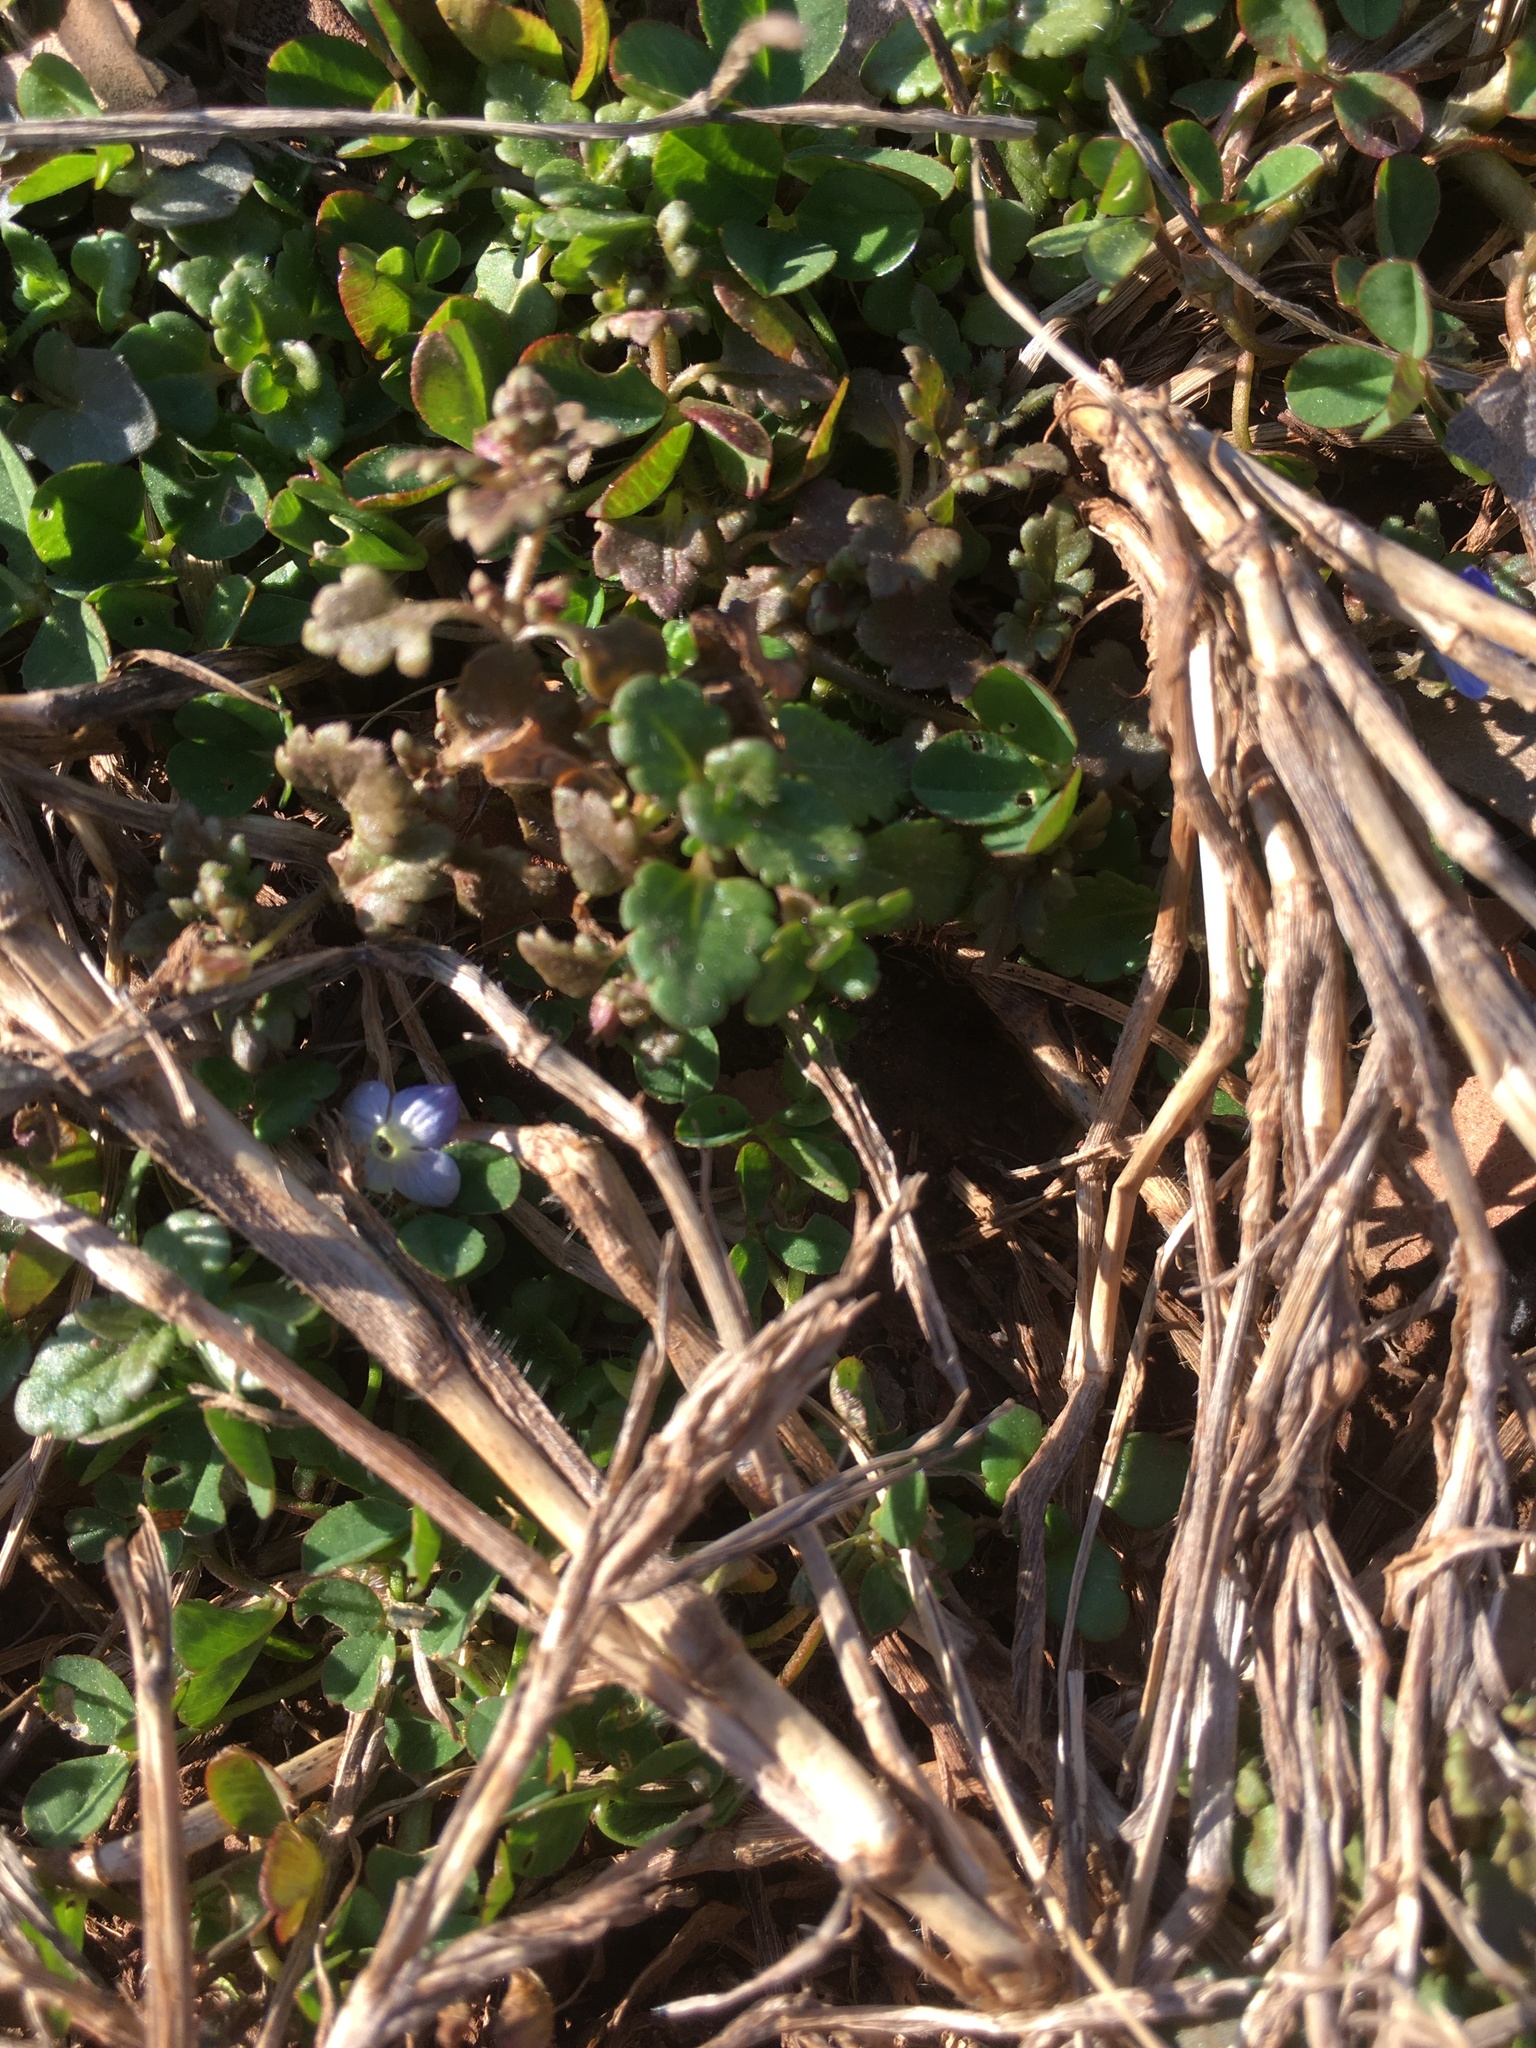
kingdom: Plantae
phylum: Tracheophyta
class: Magnoliopsida
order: Lamiales
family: Plantaginaceae
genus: Veronica
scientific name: Veronica polita
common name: Grey field-speedwell
